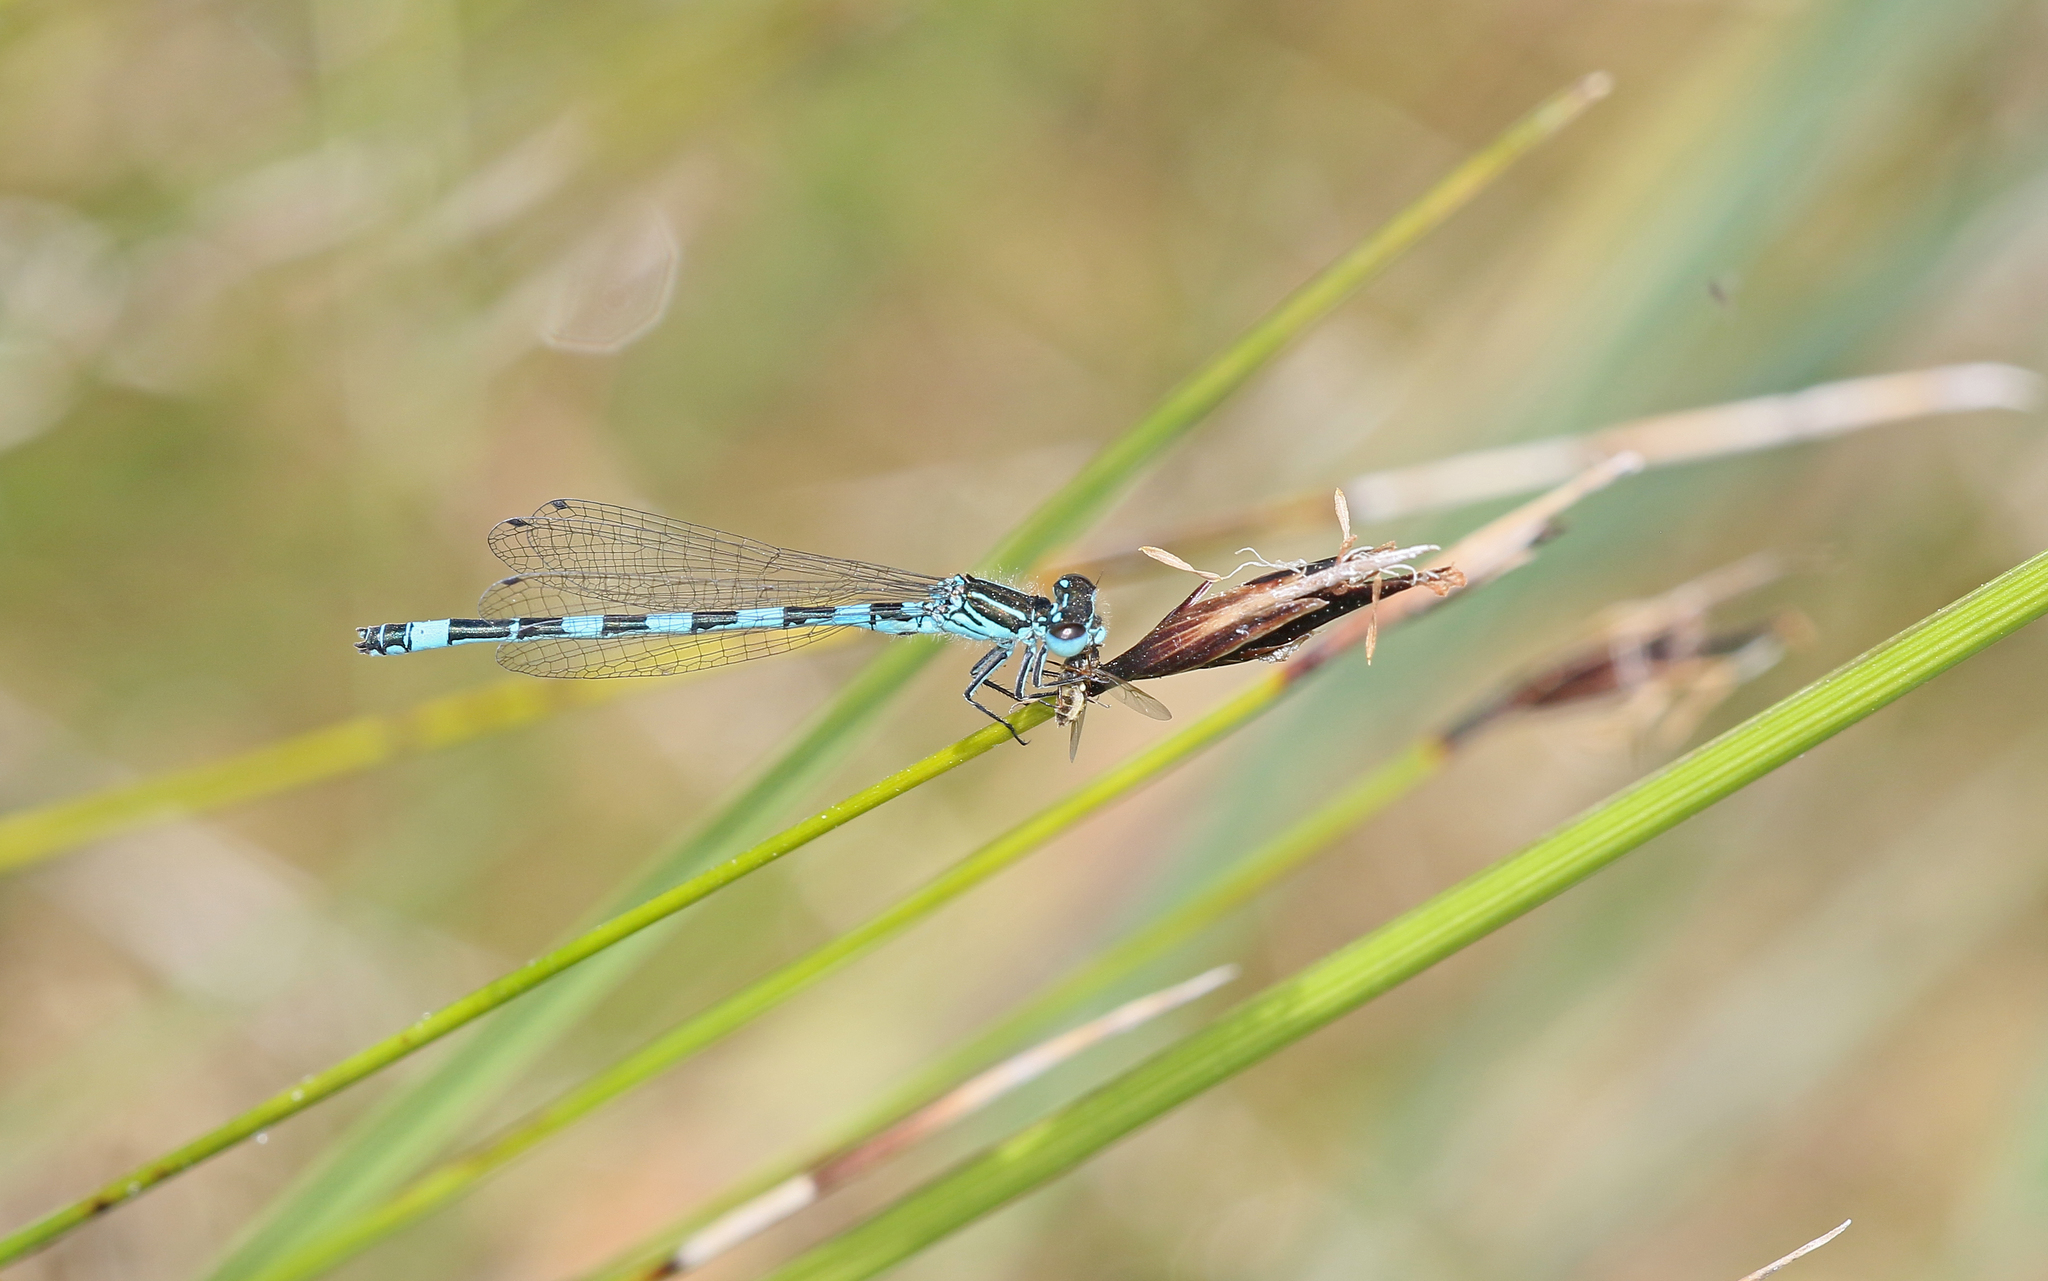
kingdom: Animalia
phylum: Arthropoda
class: Insecta
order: Odonata
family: Coenagrionidae
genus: Coenagrion
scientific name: Coenagrion mercuriale
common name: Southern damselfly
